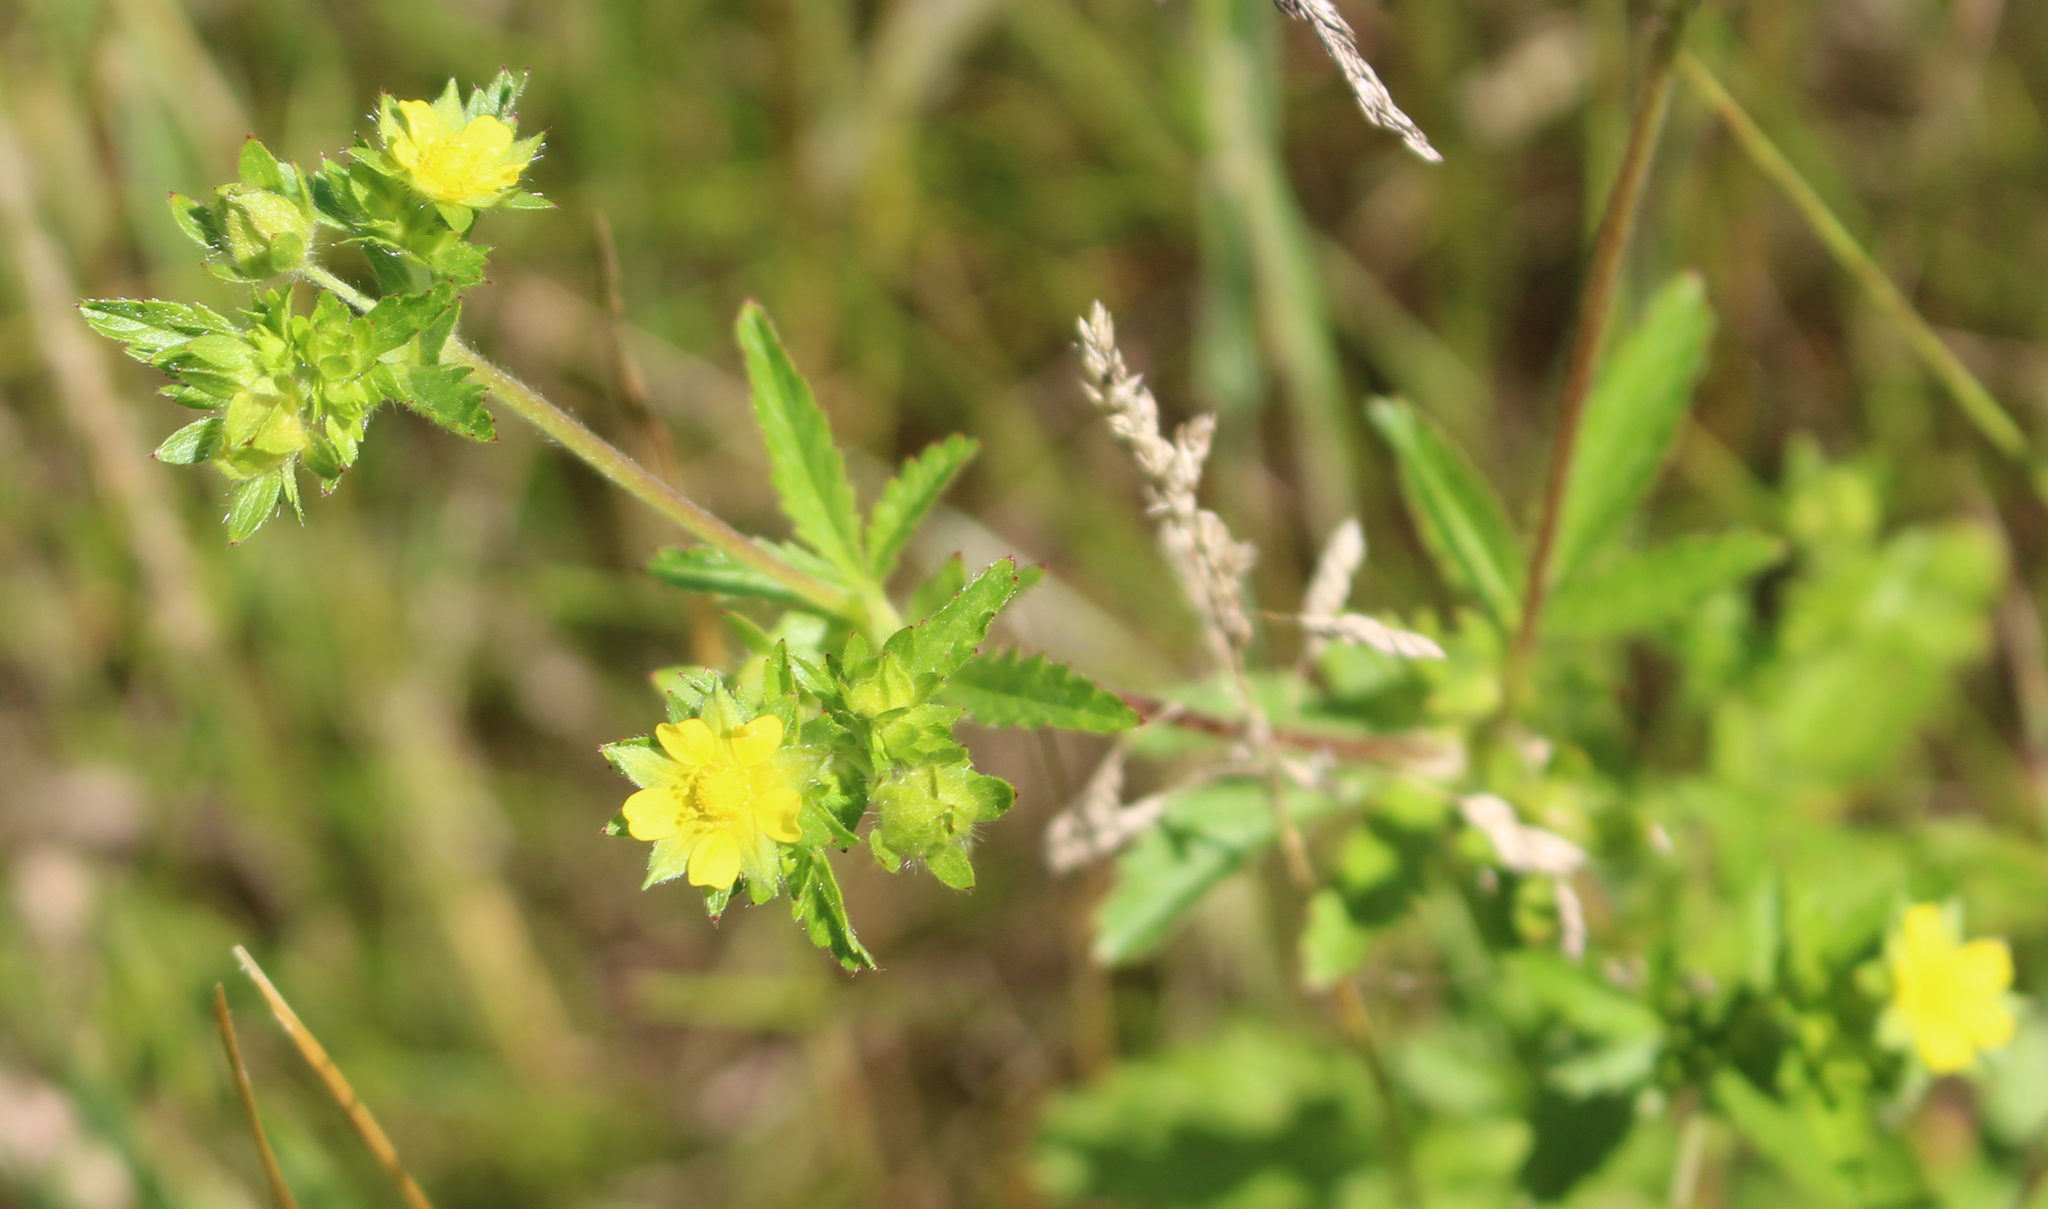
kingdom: Plantae
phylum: Tracheophyta
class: Magnoliopsida
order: Rosales
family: Rosaceae
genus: Potentilla
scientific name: Potentilla norvegica
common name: Ternate-leaved cinquefoil
